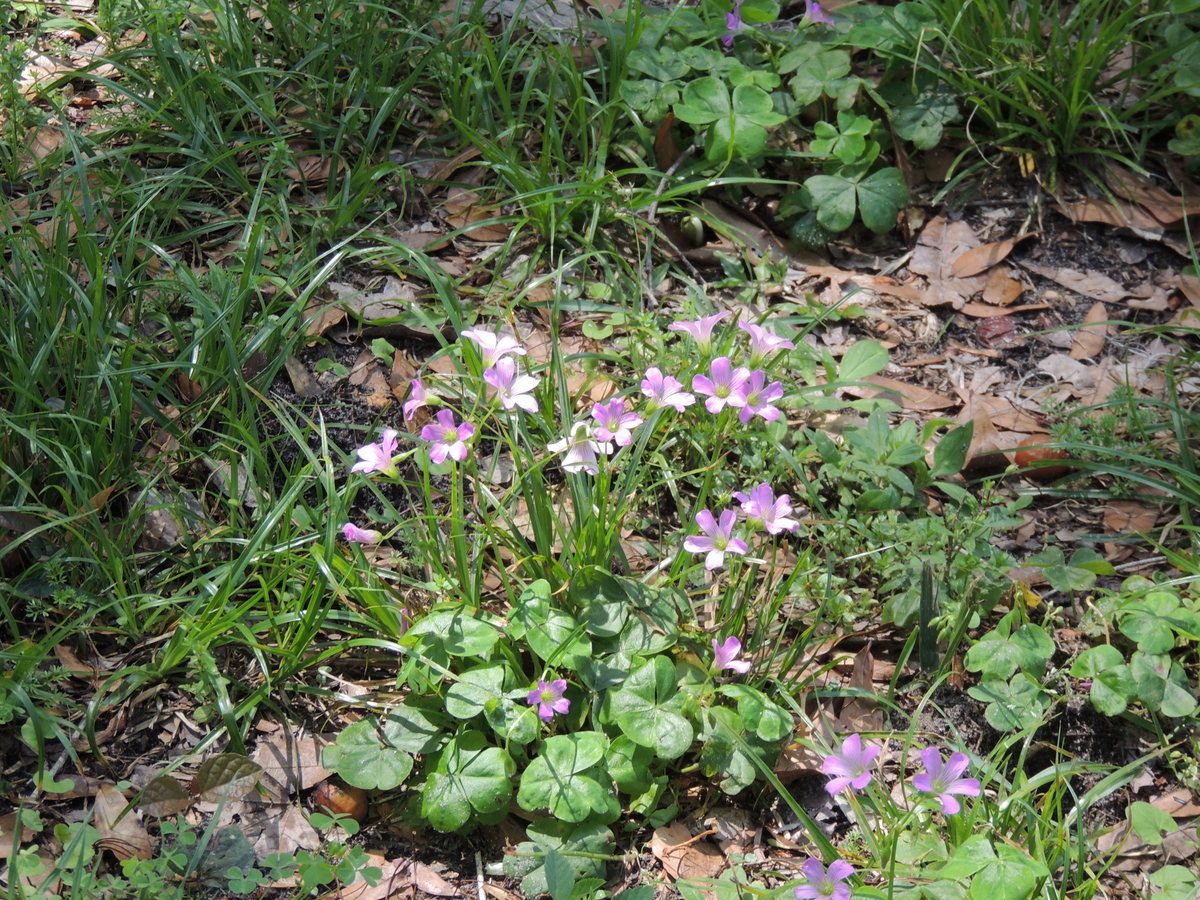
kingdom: Plantae
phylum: Tracheophyta
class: Magnoliopsida
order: Oxalidales
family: Oxalidaceae
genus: Oxalis
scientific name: Oxalis debilis
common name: Large-flowered pink-sorrel
